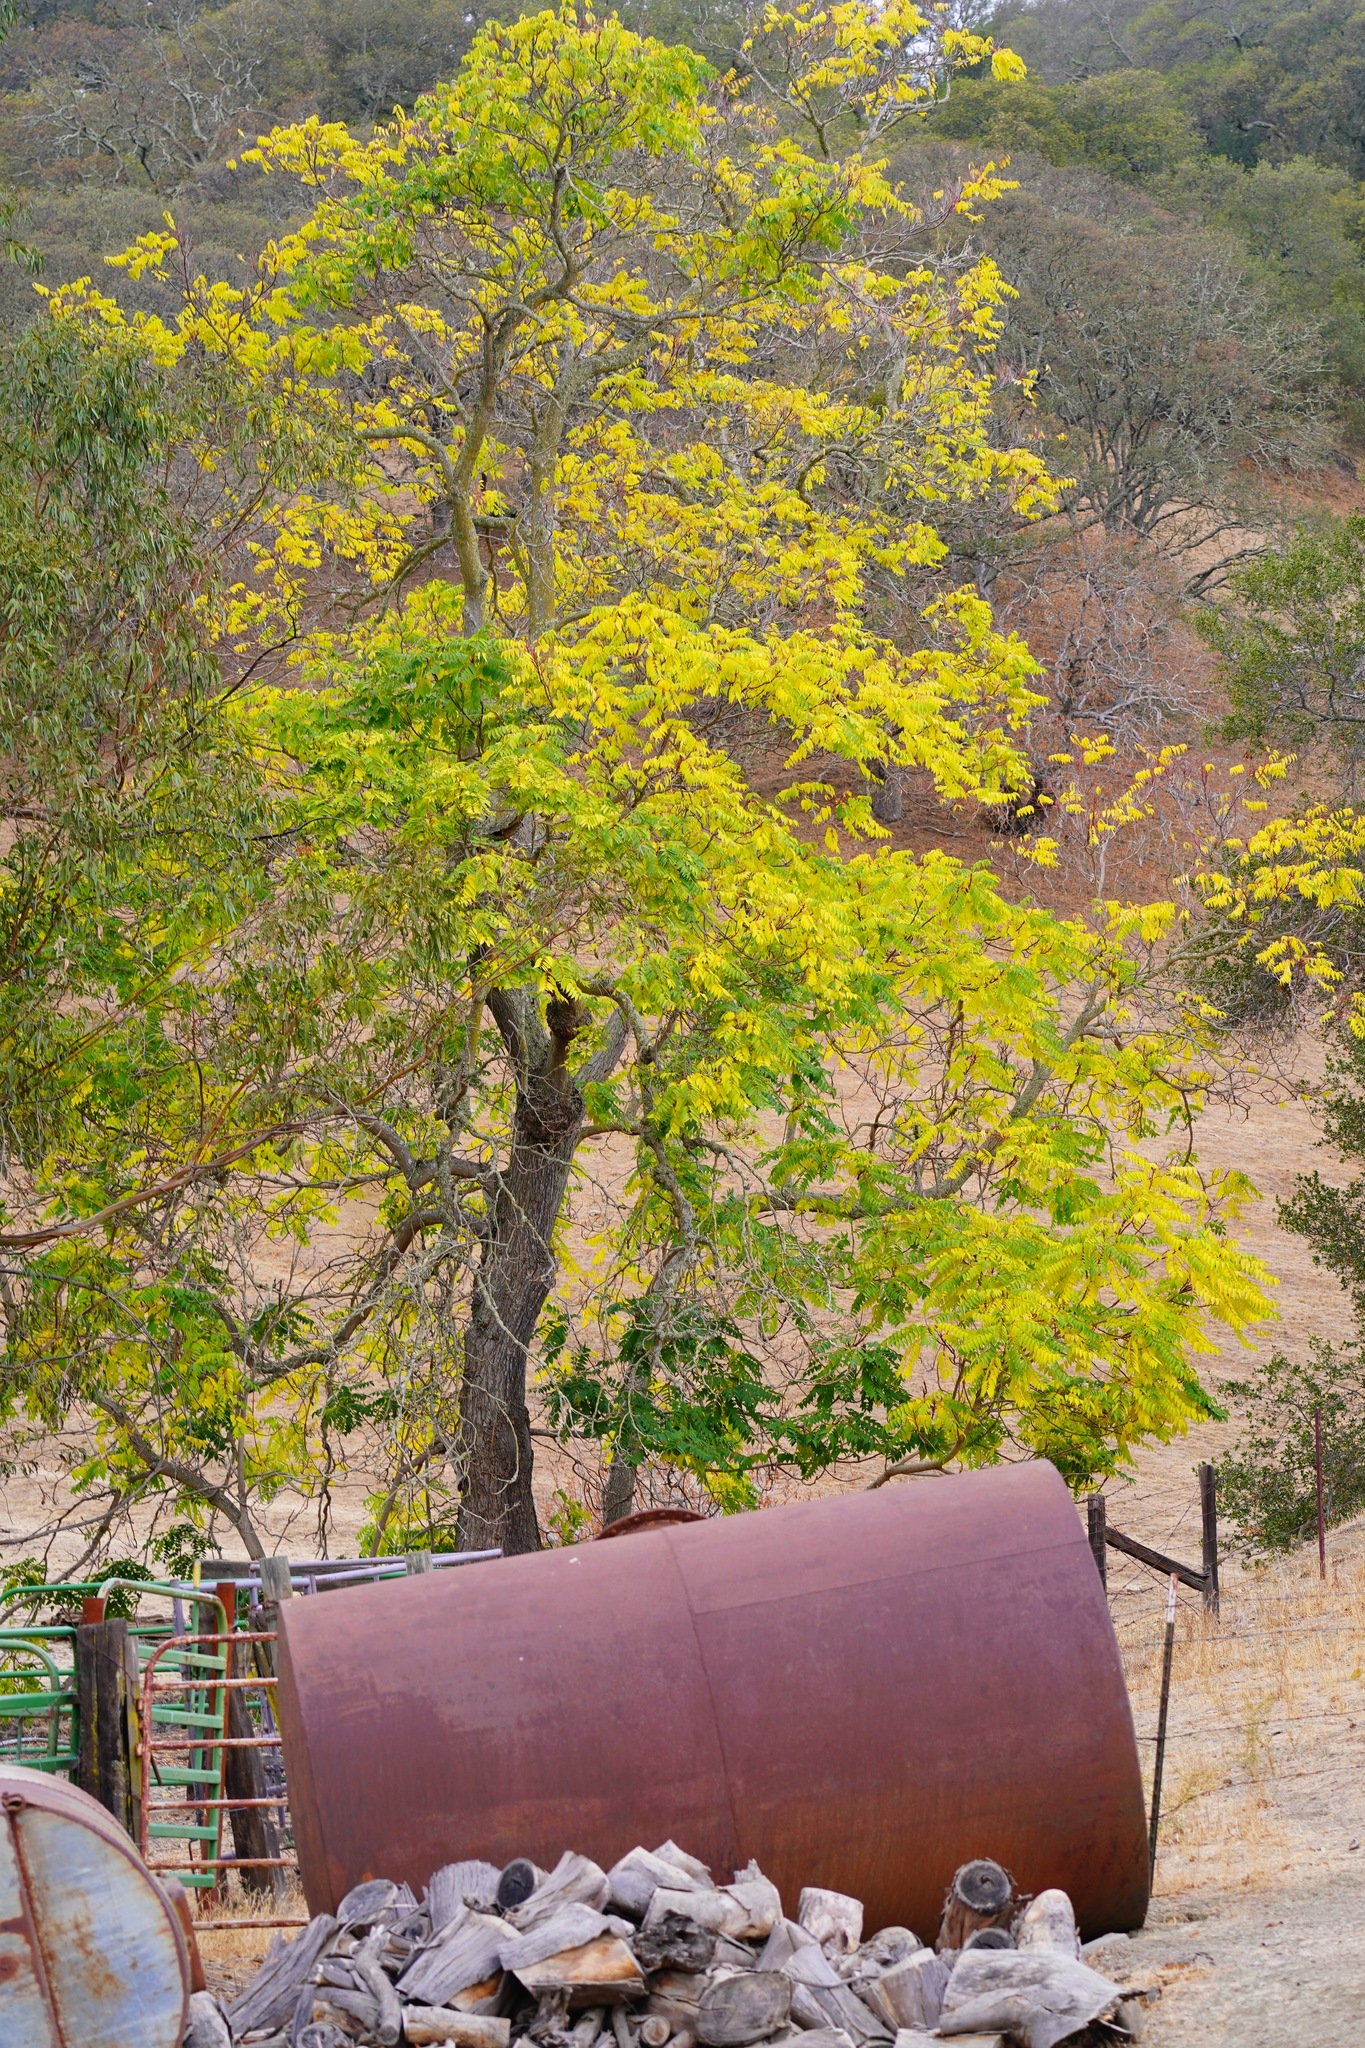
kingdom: Plantae
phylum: Tracheophyta
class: Magnoliopsida
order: Sapindales
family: Simaroubaceae
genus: Ailanthus
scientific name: Ailanthus altissima
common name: Tree-of-heaven
